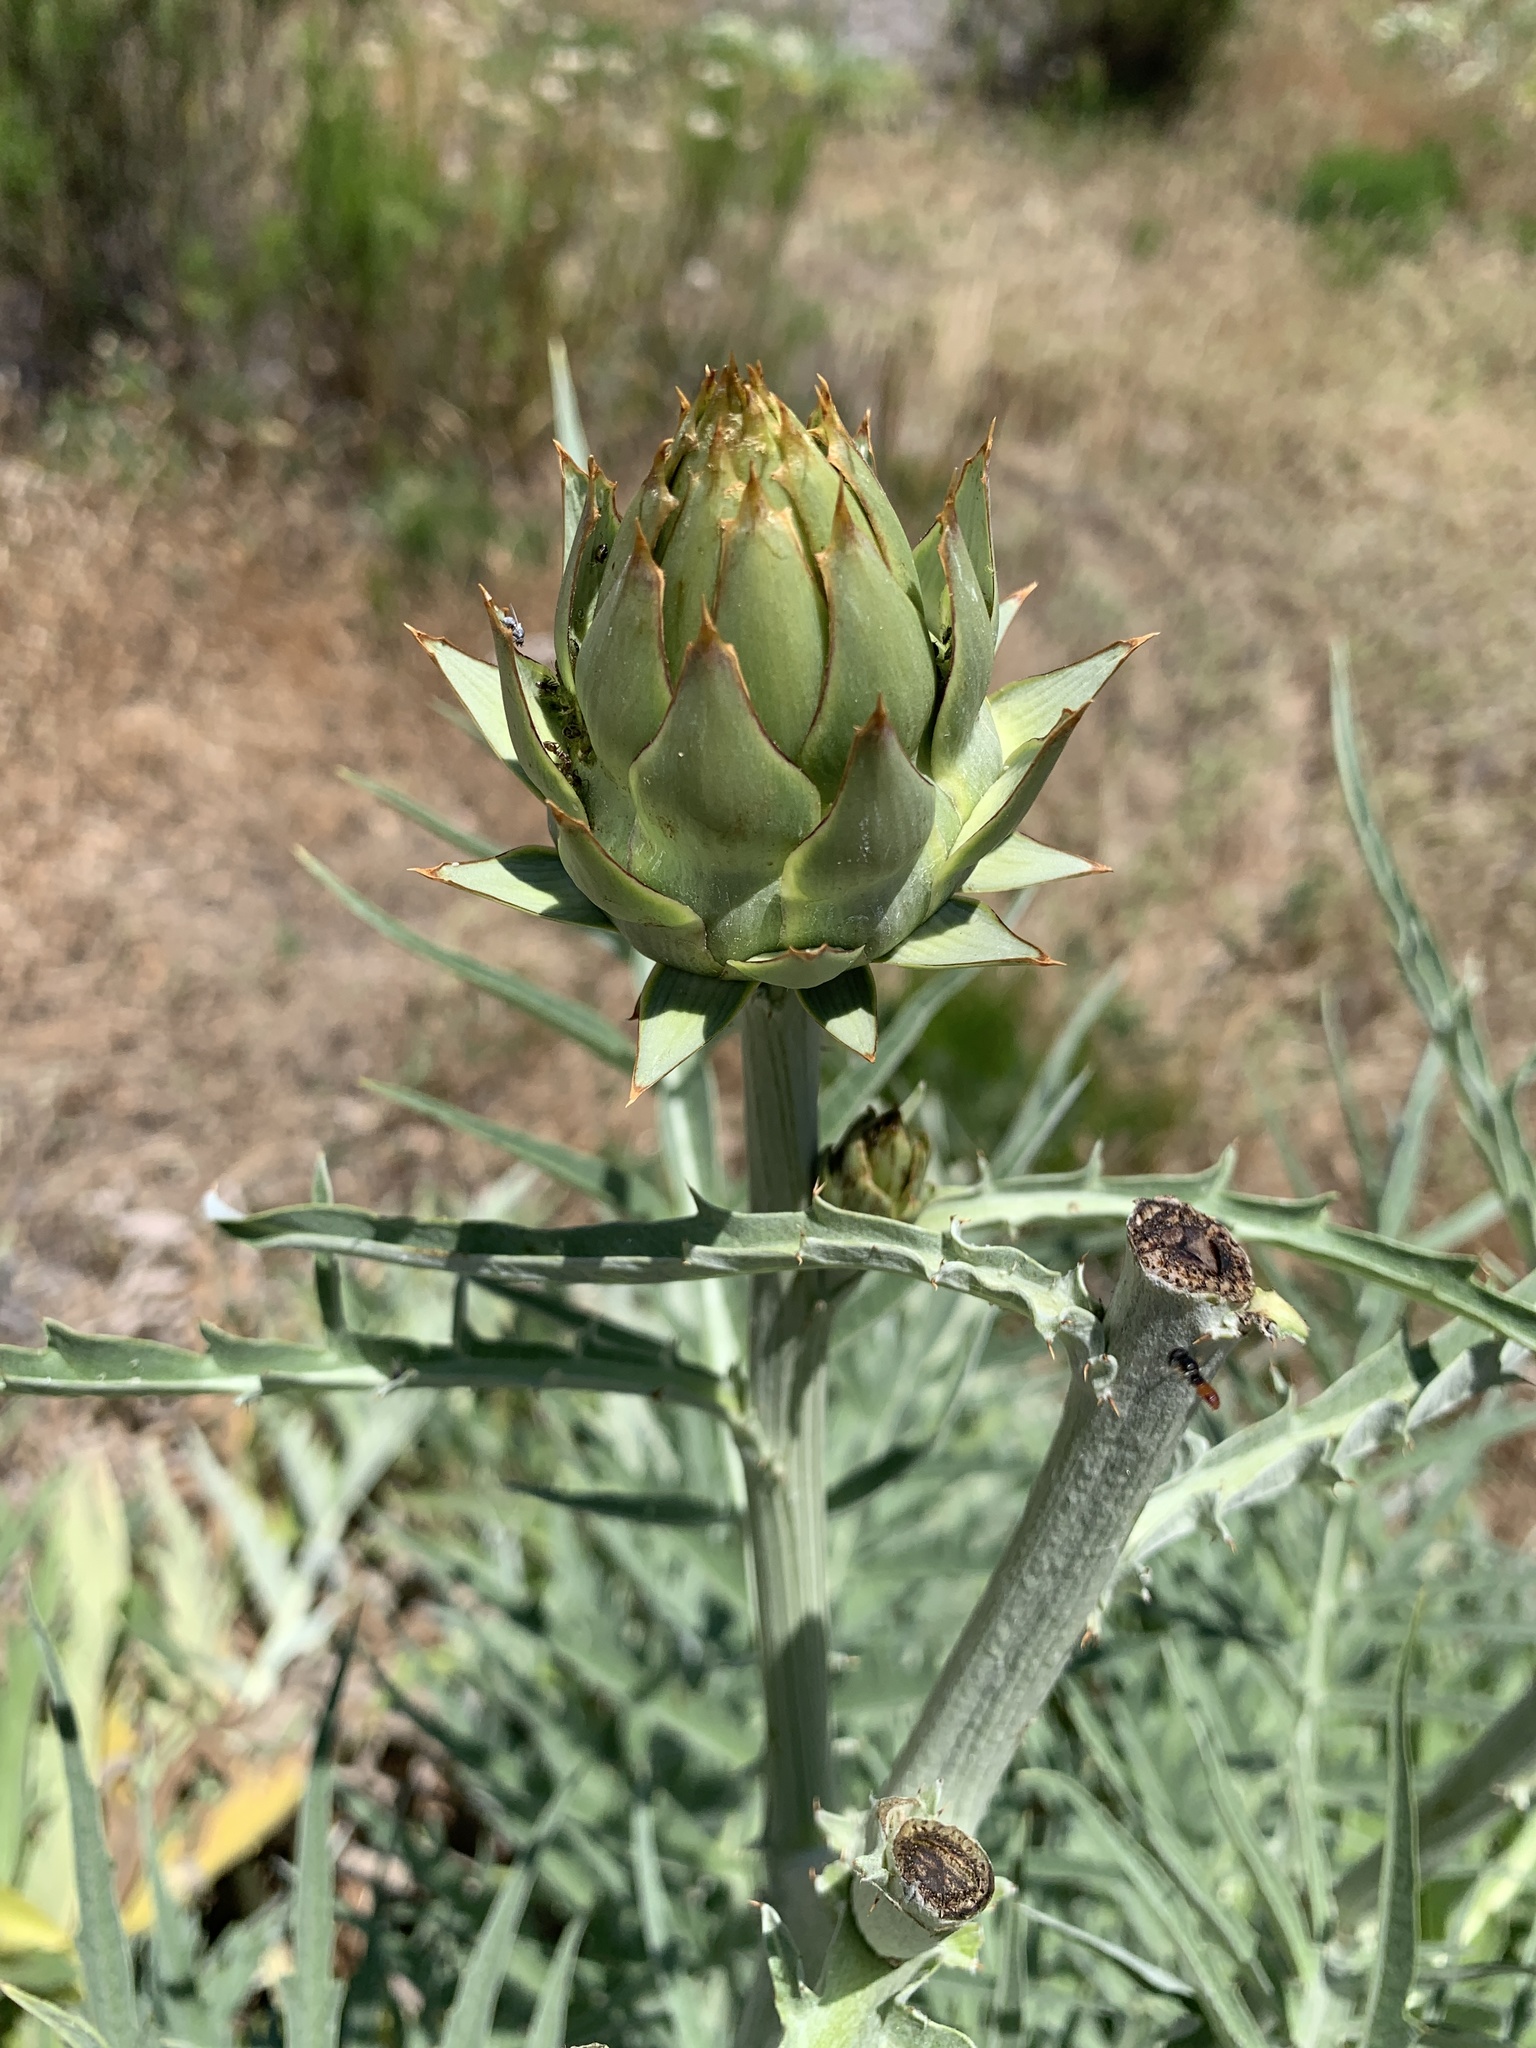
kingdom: Plantae
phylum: Tracheophyta
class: Magnoliopsida
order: Asterales
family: Asteraceae
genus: Cynara
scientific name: Cynara cardunculus
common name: Globe artichoke
